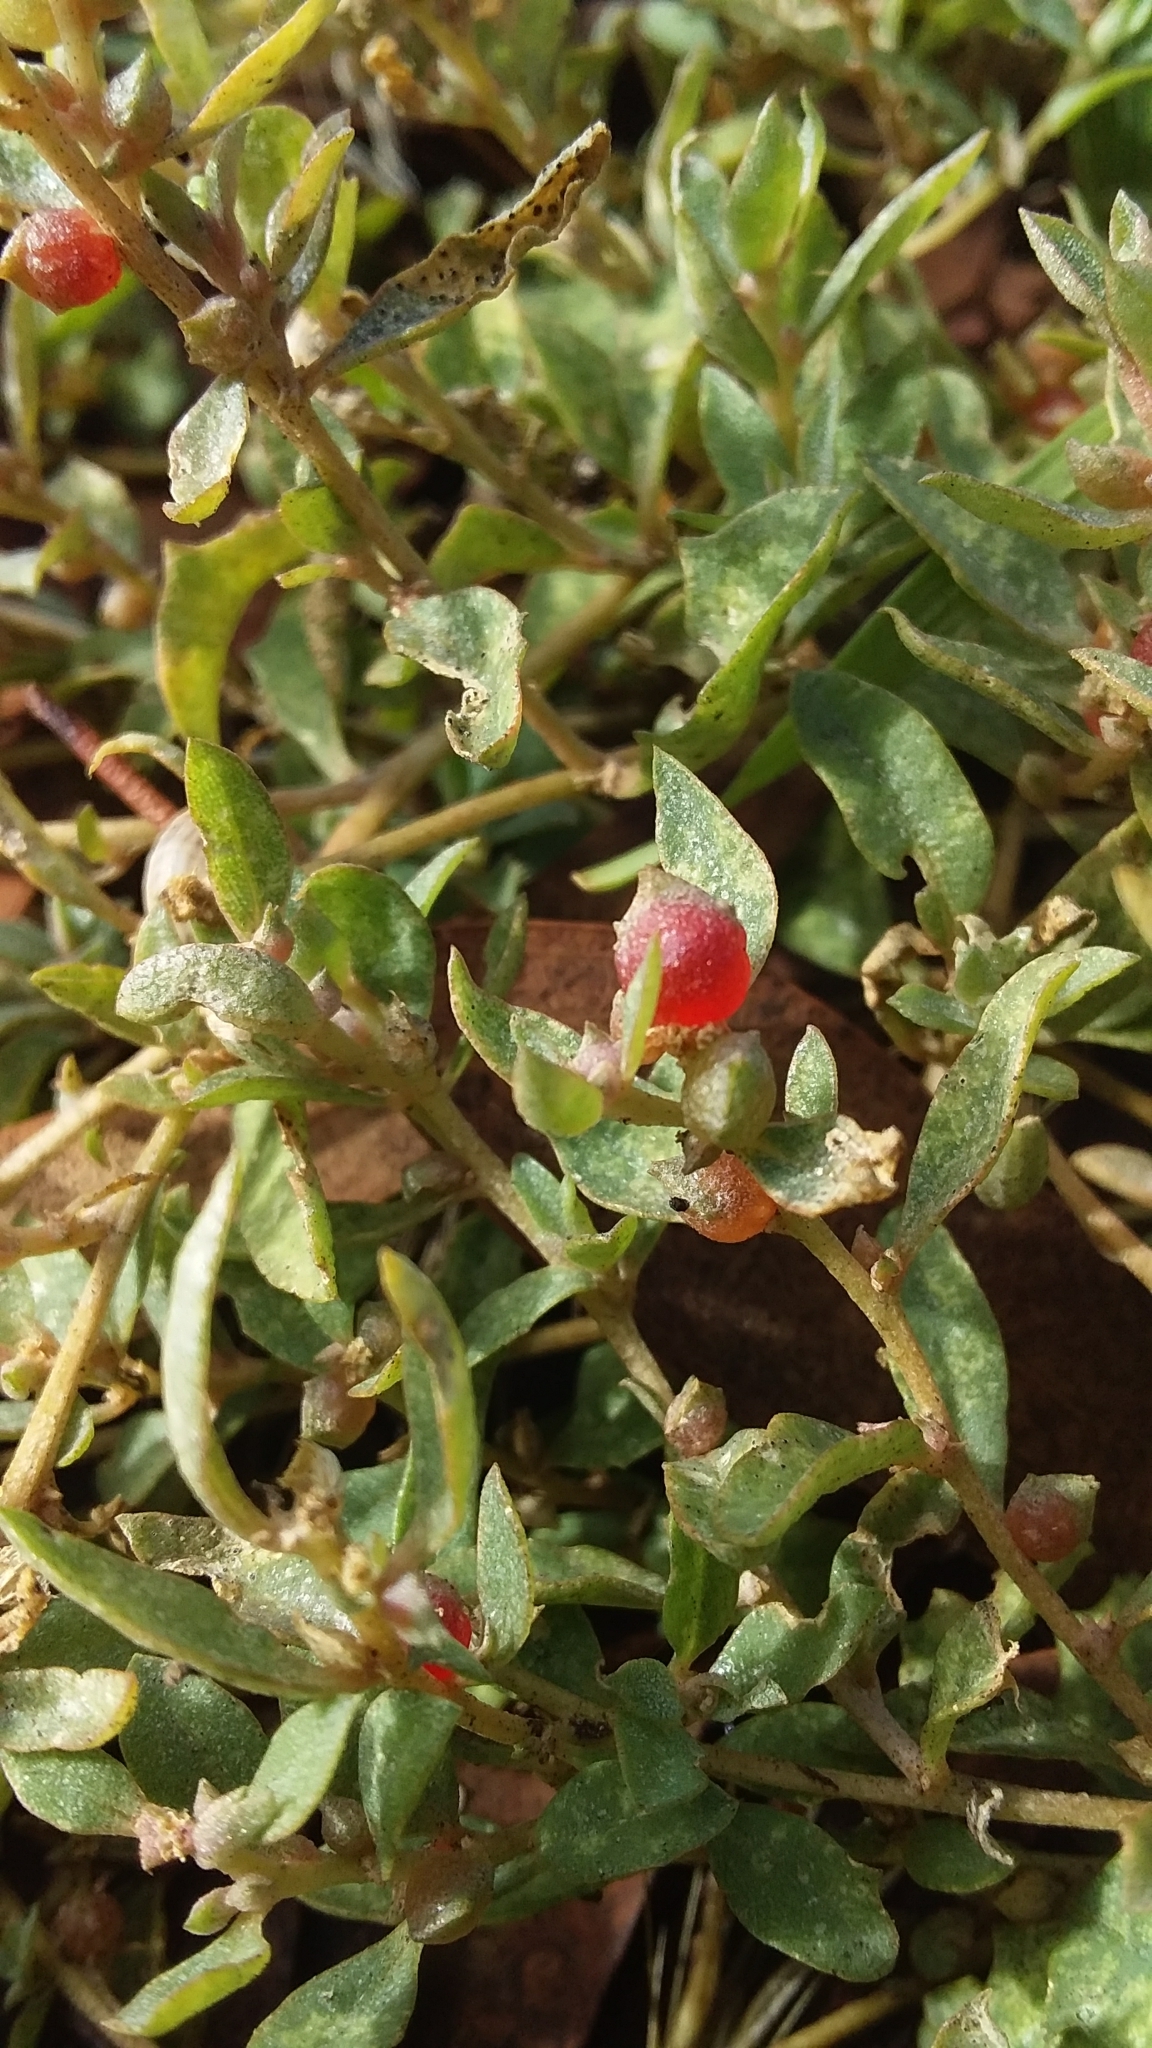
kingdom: Plantae
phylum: Tracheophyta
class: Magnoliopsida
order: Caryophyllales
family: Amaranthaceae
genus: Atriplex
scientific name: Atriplex semibaccata
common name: Australian saltbush
